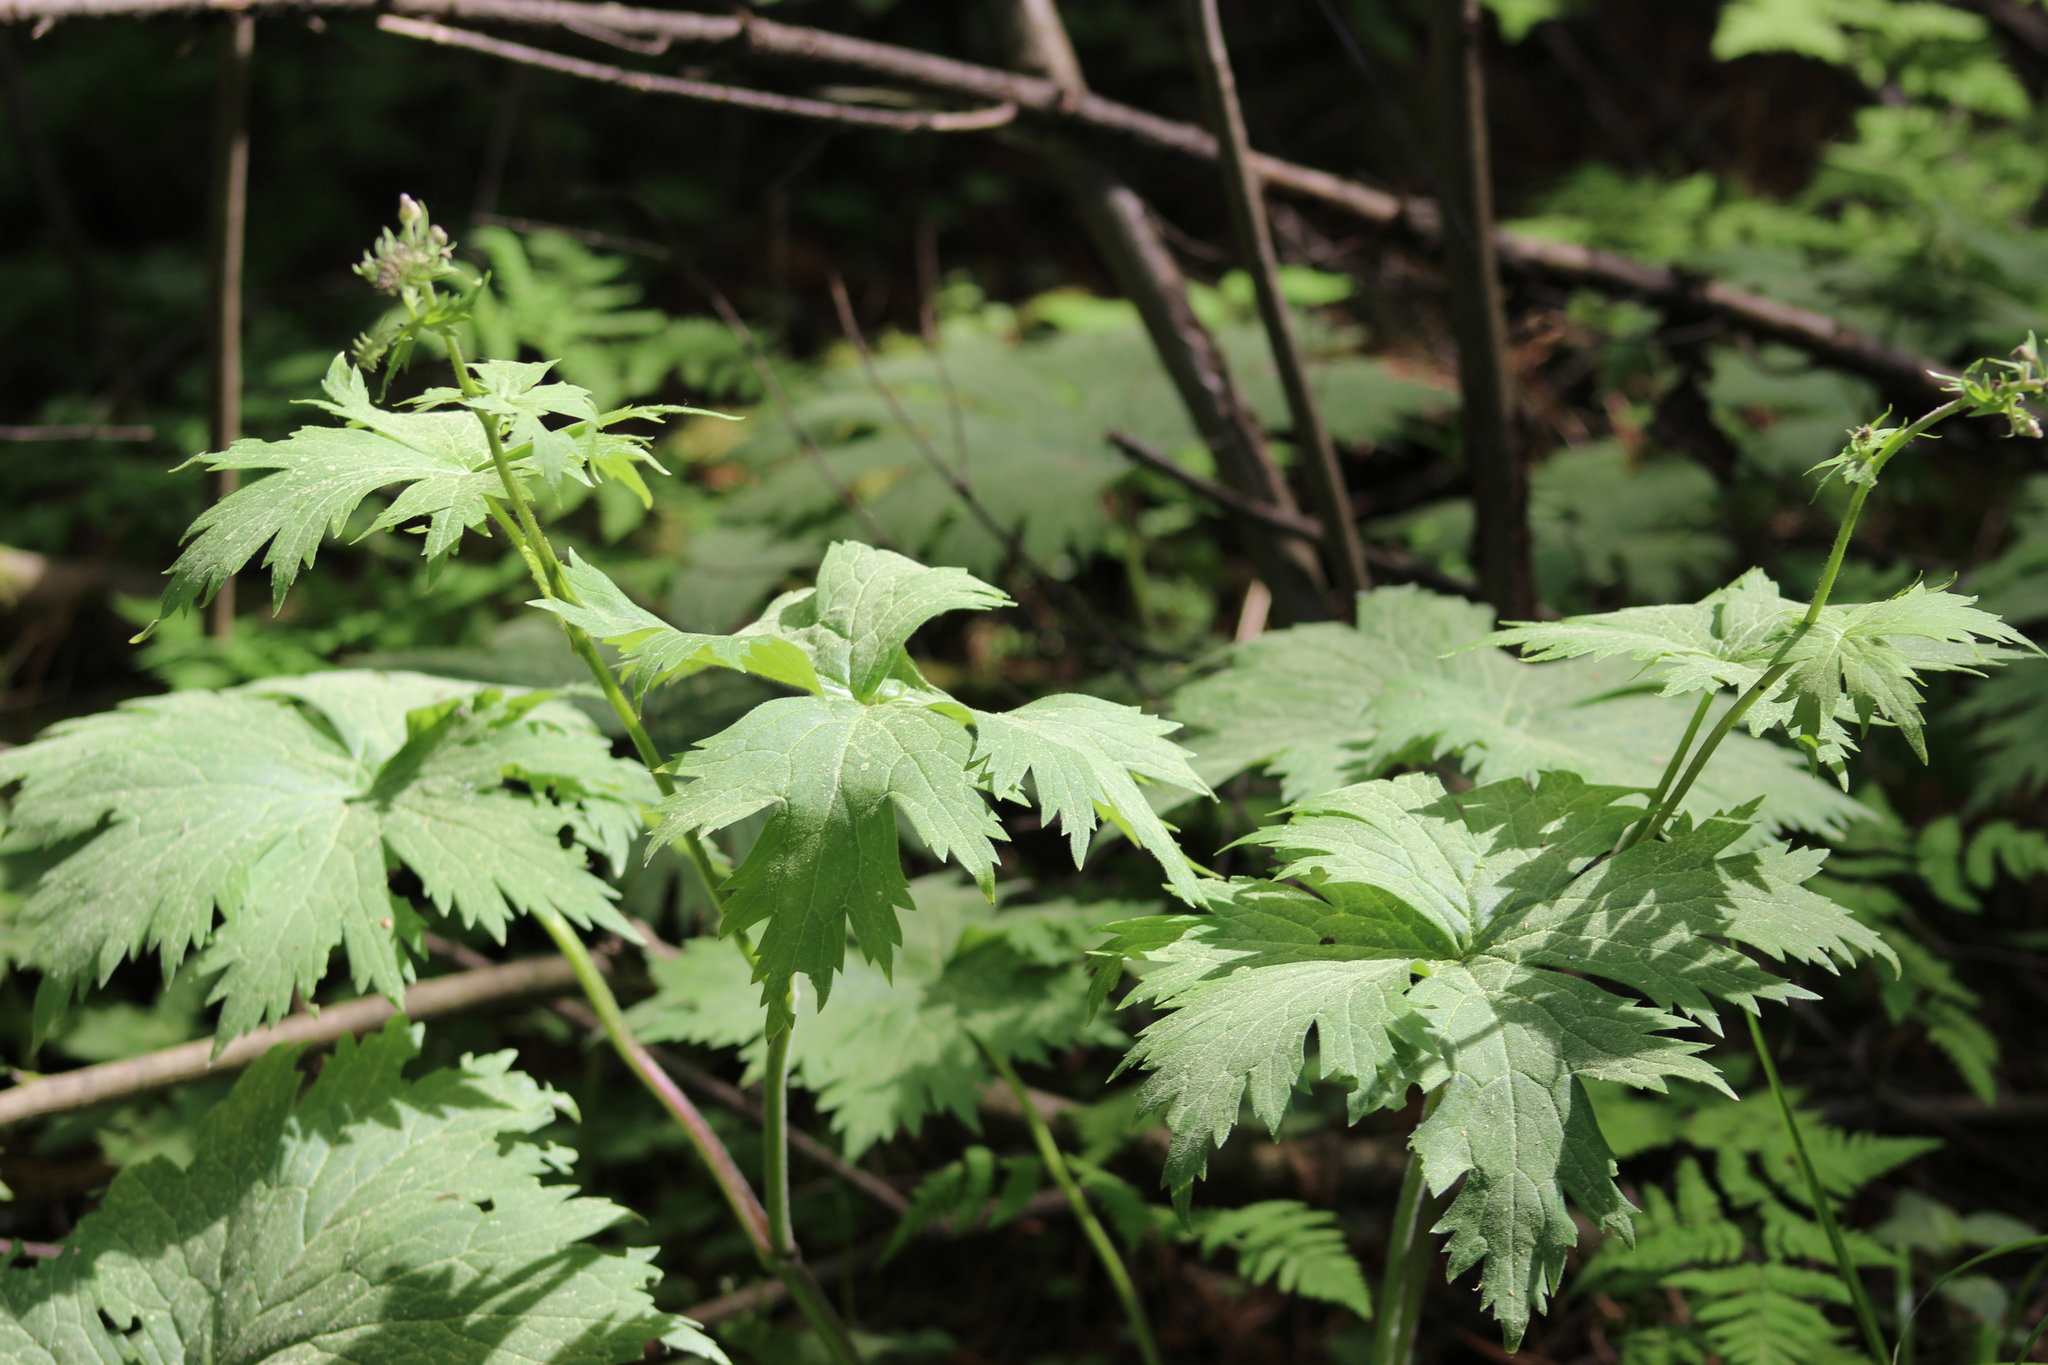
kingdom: Plantae
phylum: Tracheophyta
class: Magnoliopsida
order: Ranunculales
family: Ranunculaceae
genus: Aconitum
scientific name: Aconitum septentrionale
